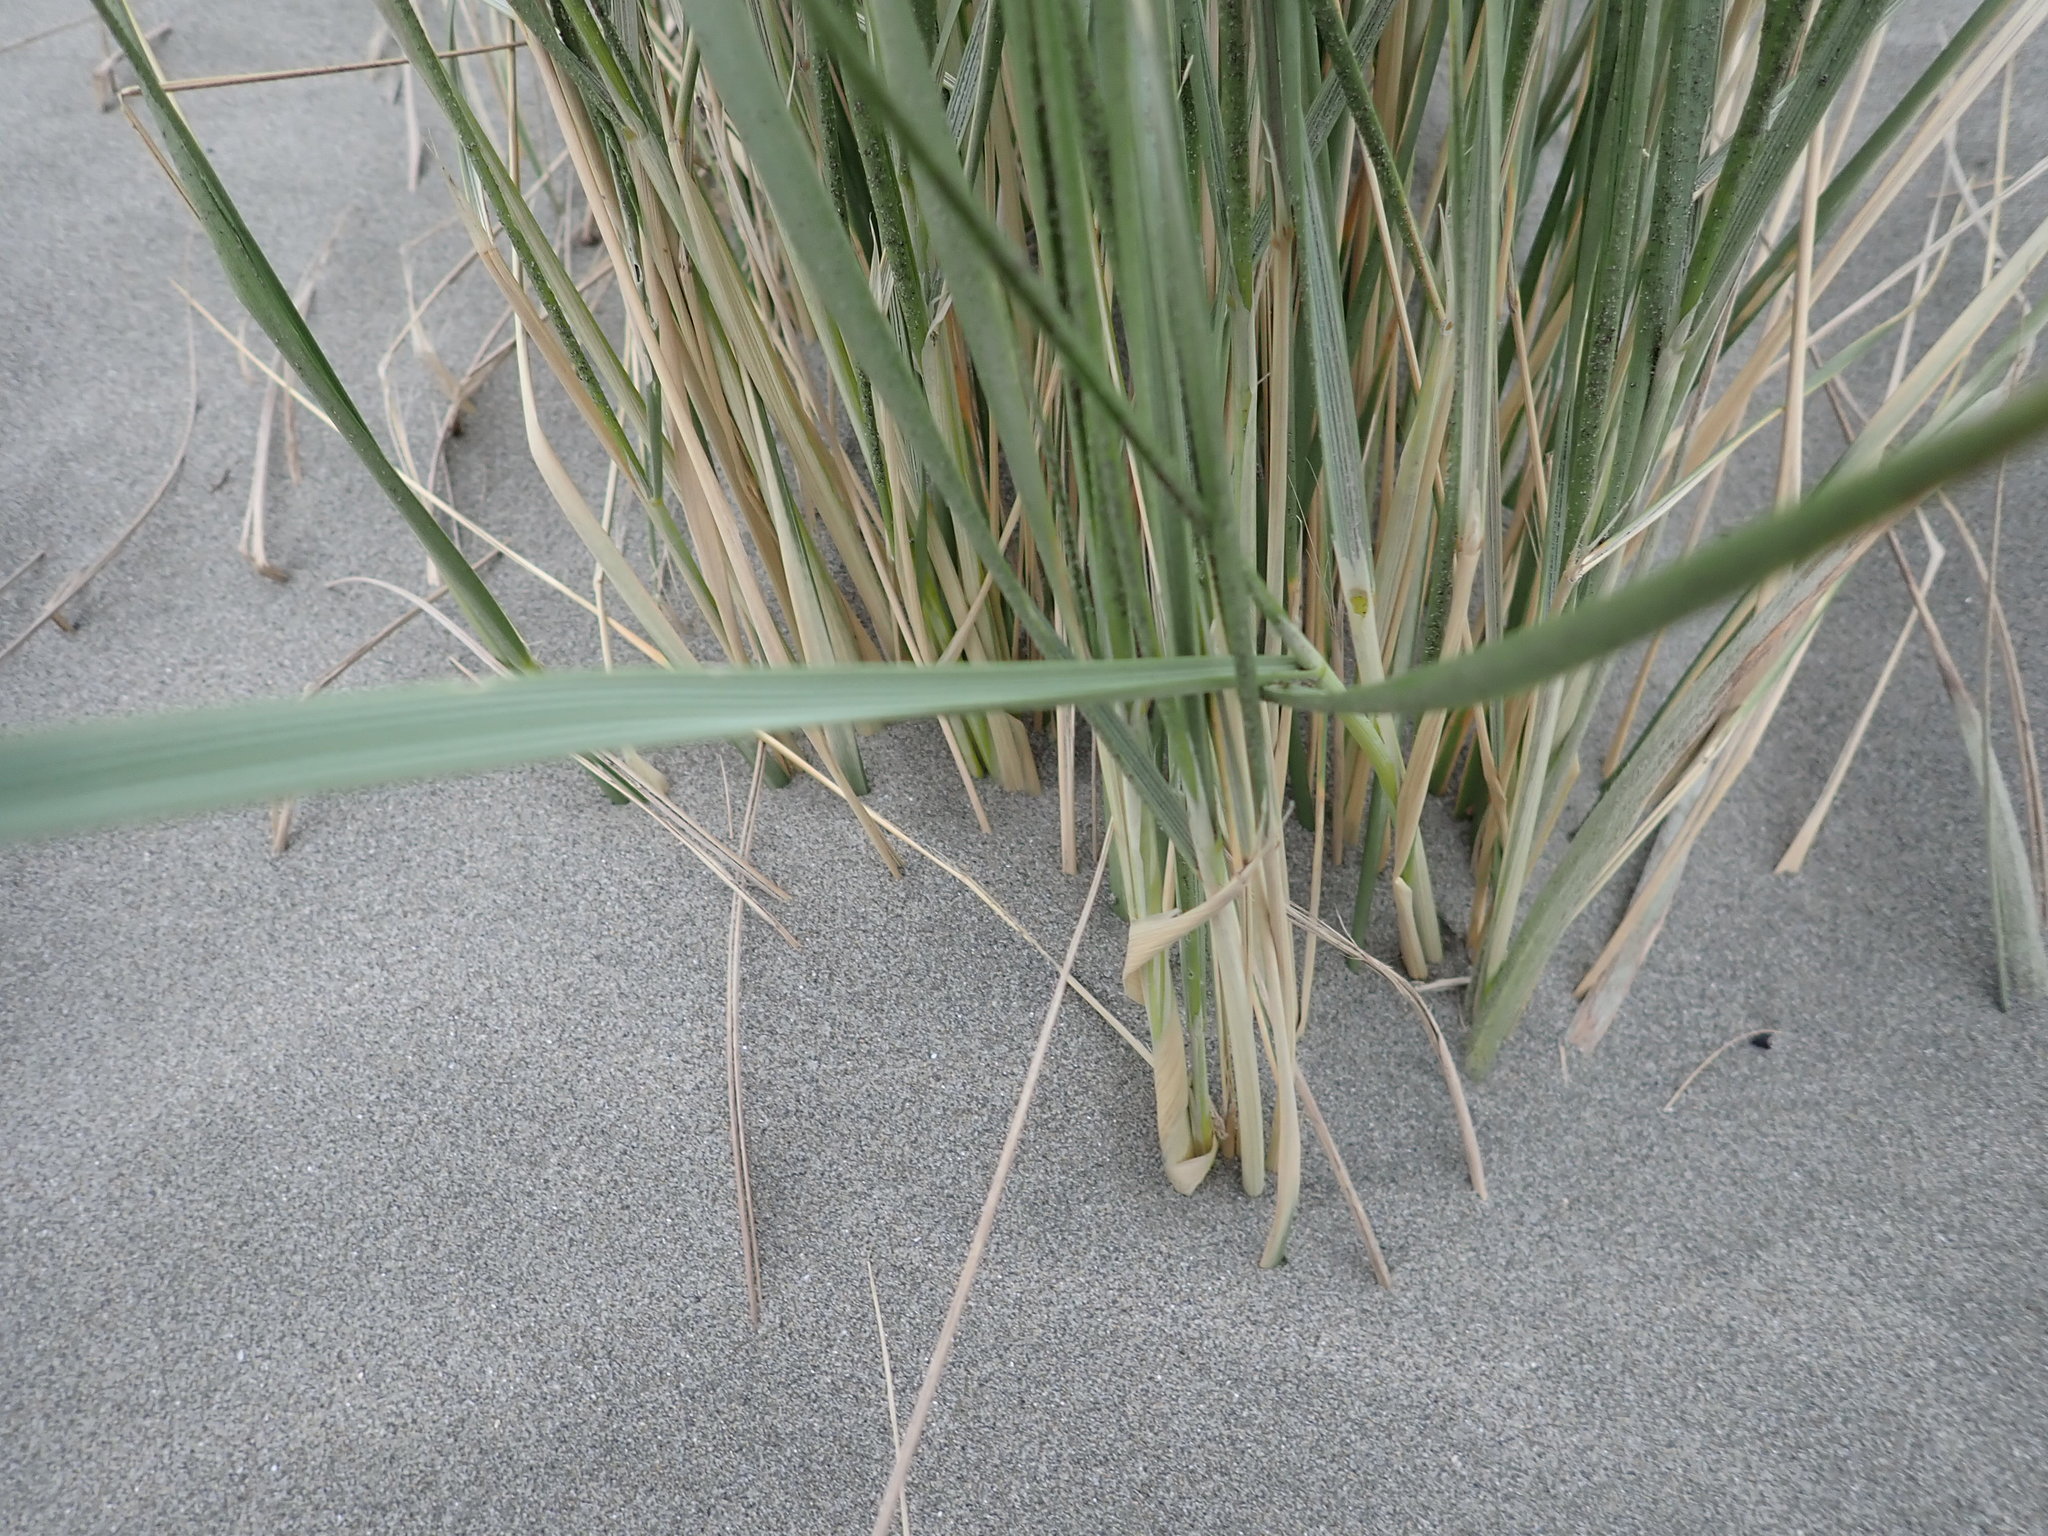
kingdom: Plantae
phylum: Tracheophyta
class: Liliopsida
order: Poales
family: Poaceae
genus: Calamagrostis
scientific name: Calamagrostis arenaria
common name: European beachgrass
